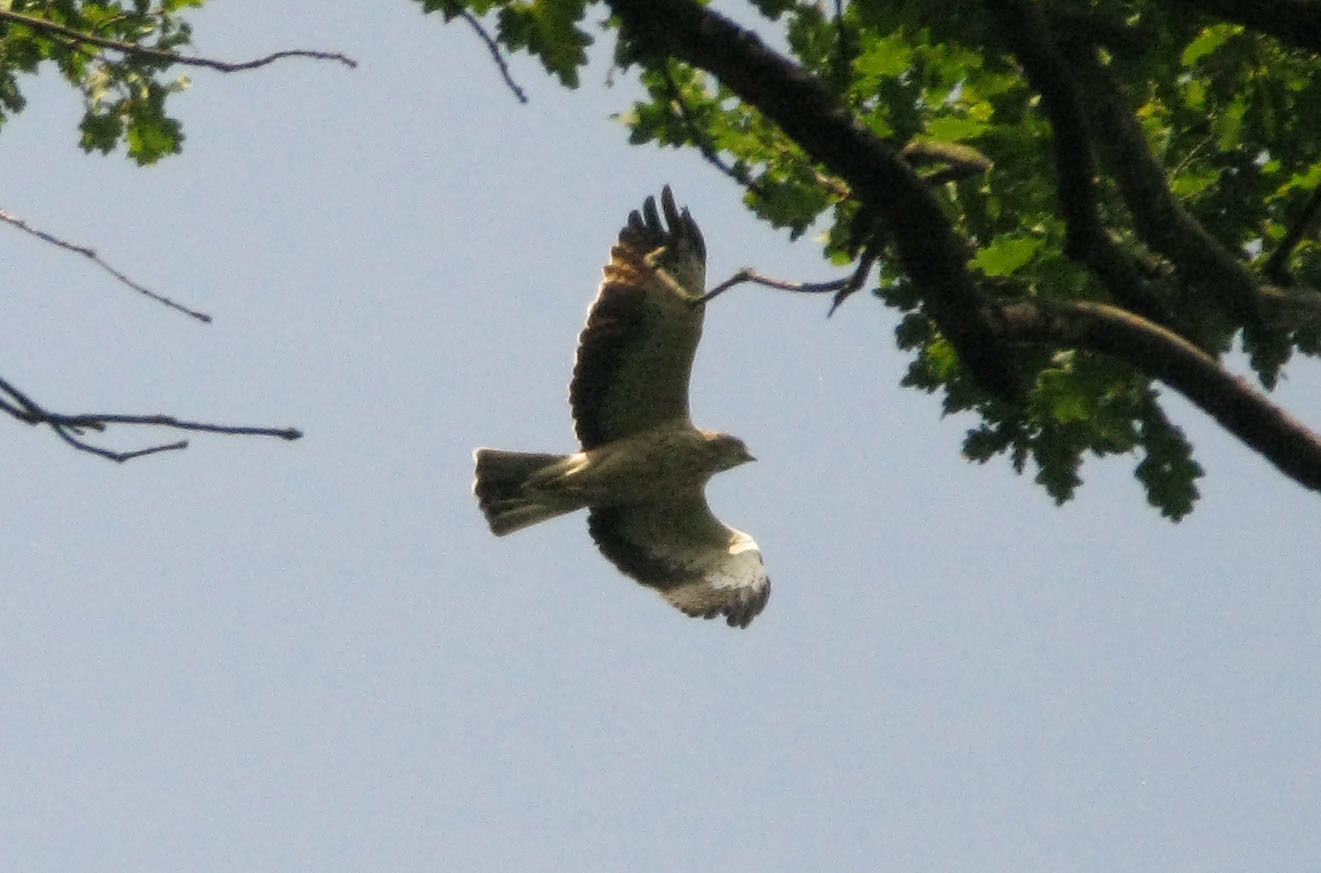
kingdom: Animalia
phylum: Chordata
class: Aves
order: Accipitriformes
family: Accipitridae
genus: Hieraaetus
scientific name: Hieraaetus pennatus
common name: Booted eagle
